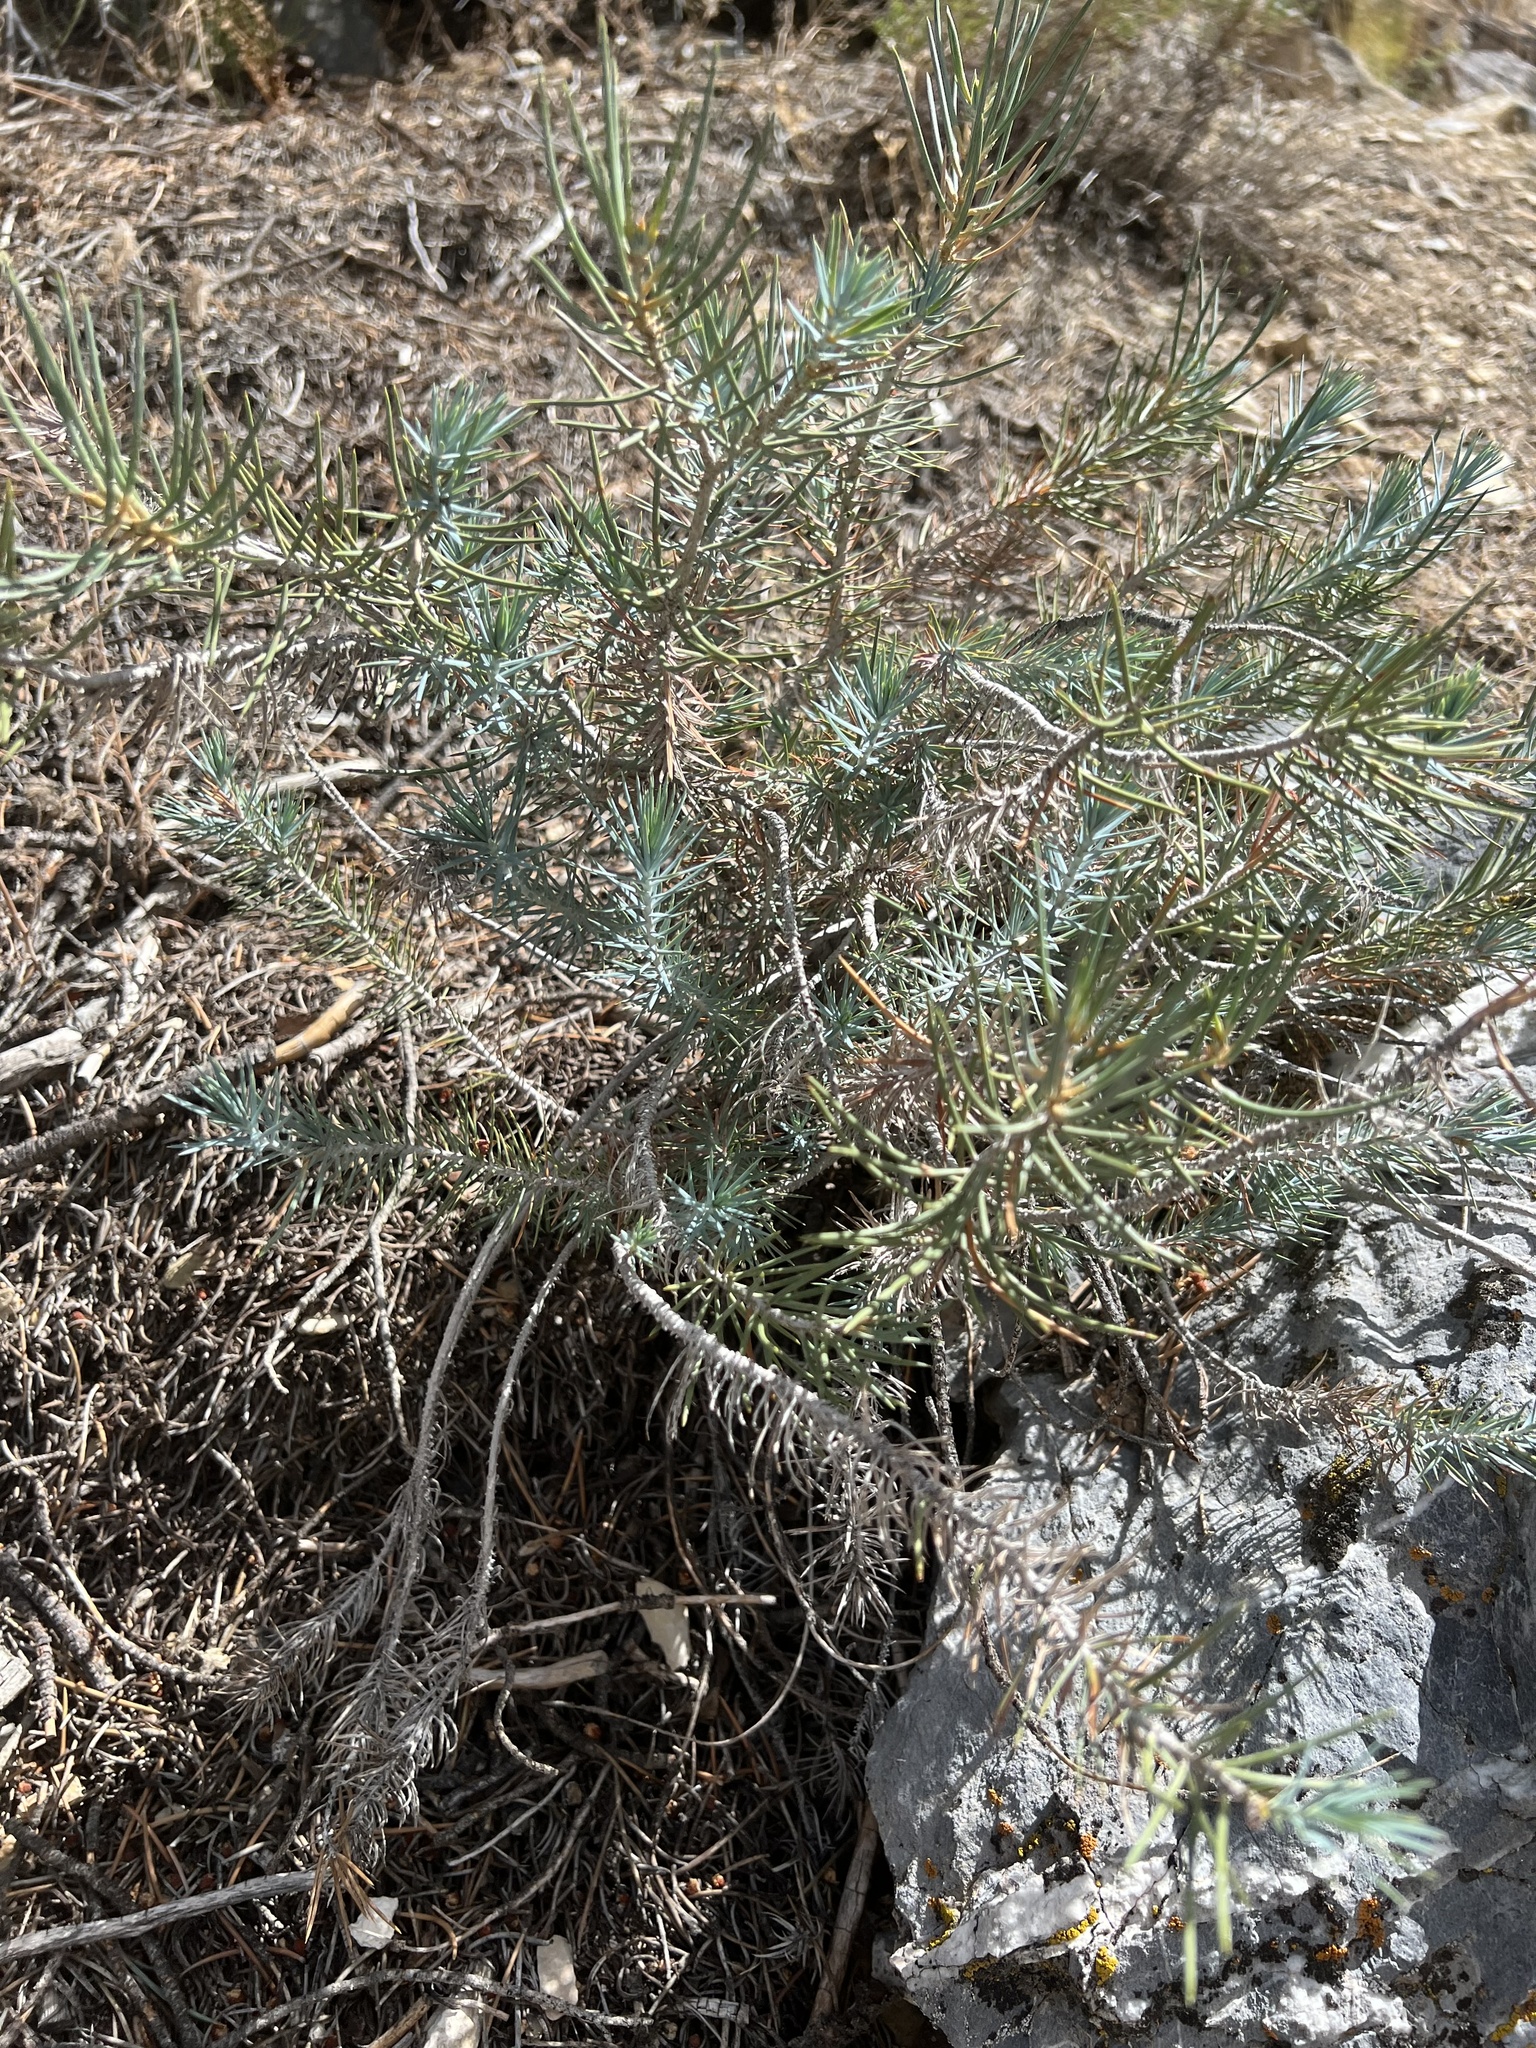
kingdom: Plantae
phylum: Tracheophyta
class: Pinopsida
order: Pinales
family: Pinaceae
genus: Pinus
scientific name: Pinus monophylla
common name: One-leaved nut pine
